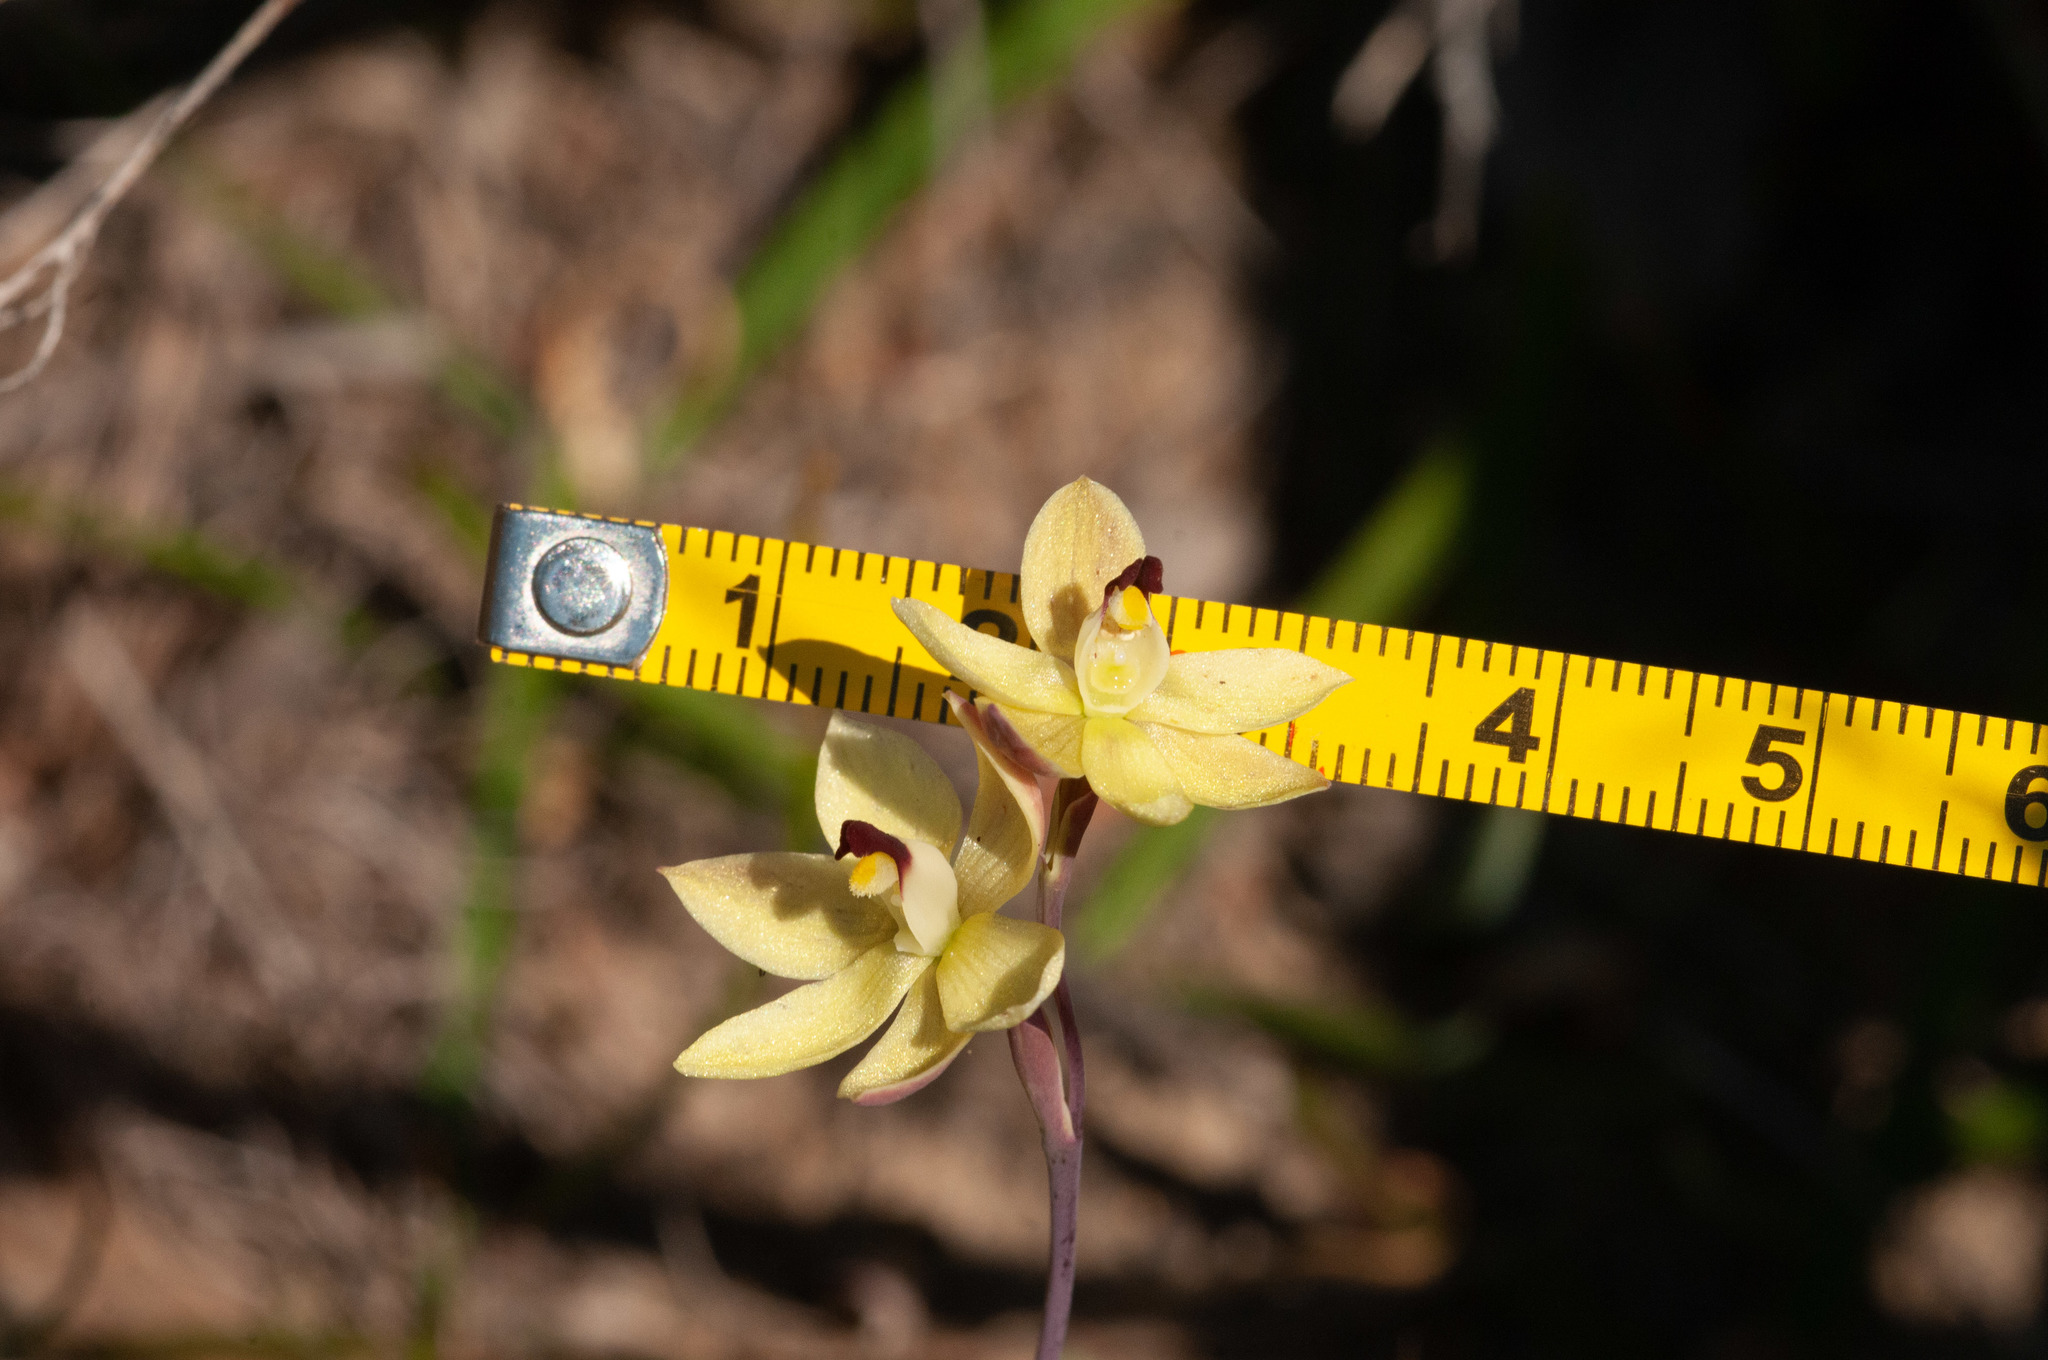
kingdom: Plantae
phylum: Tracheophyta
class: Liliopsida
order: Asparagales
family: Orchidaceae
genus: Thelymitra
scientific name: Thelymitra antennifera
